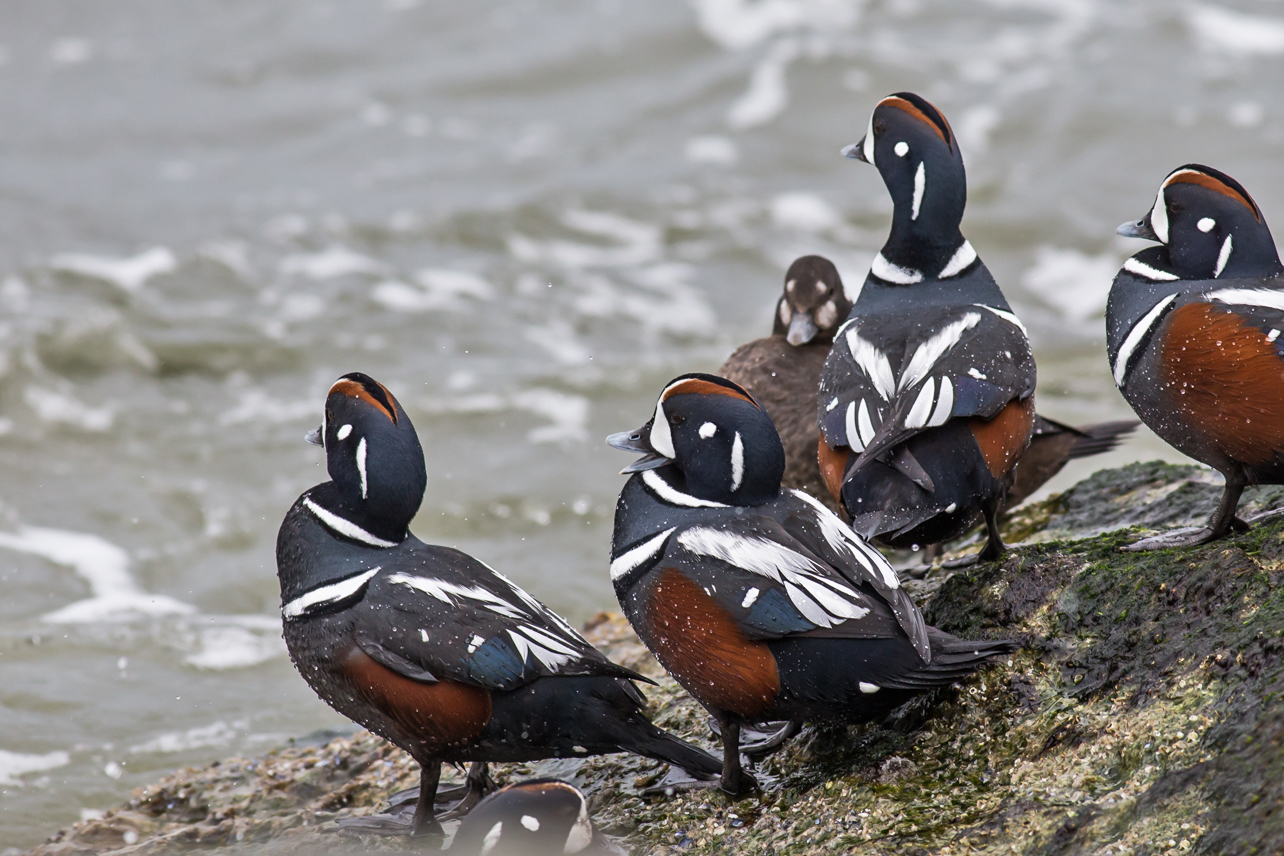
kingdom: Animalia
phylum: Chordata
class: Aves
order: Anseriformes
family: Anatidae
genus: Histrionicus
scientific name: Histrionicus histrionicus
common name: Harlequin duck
